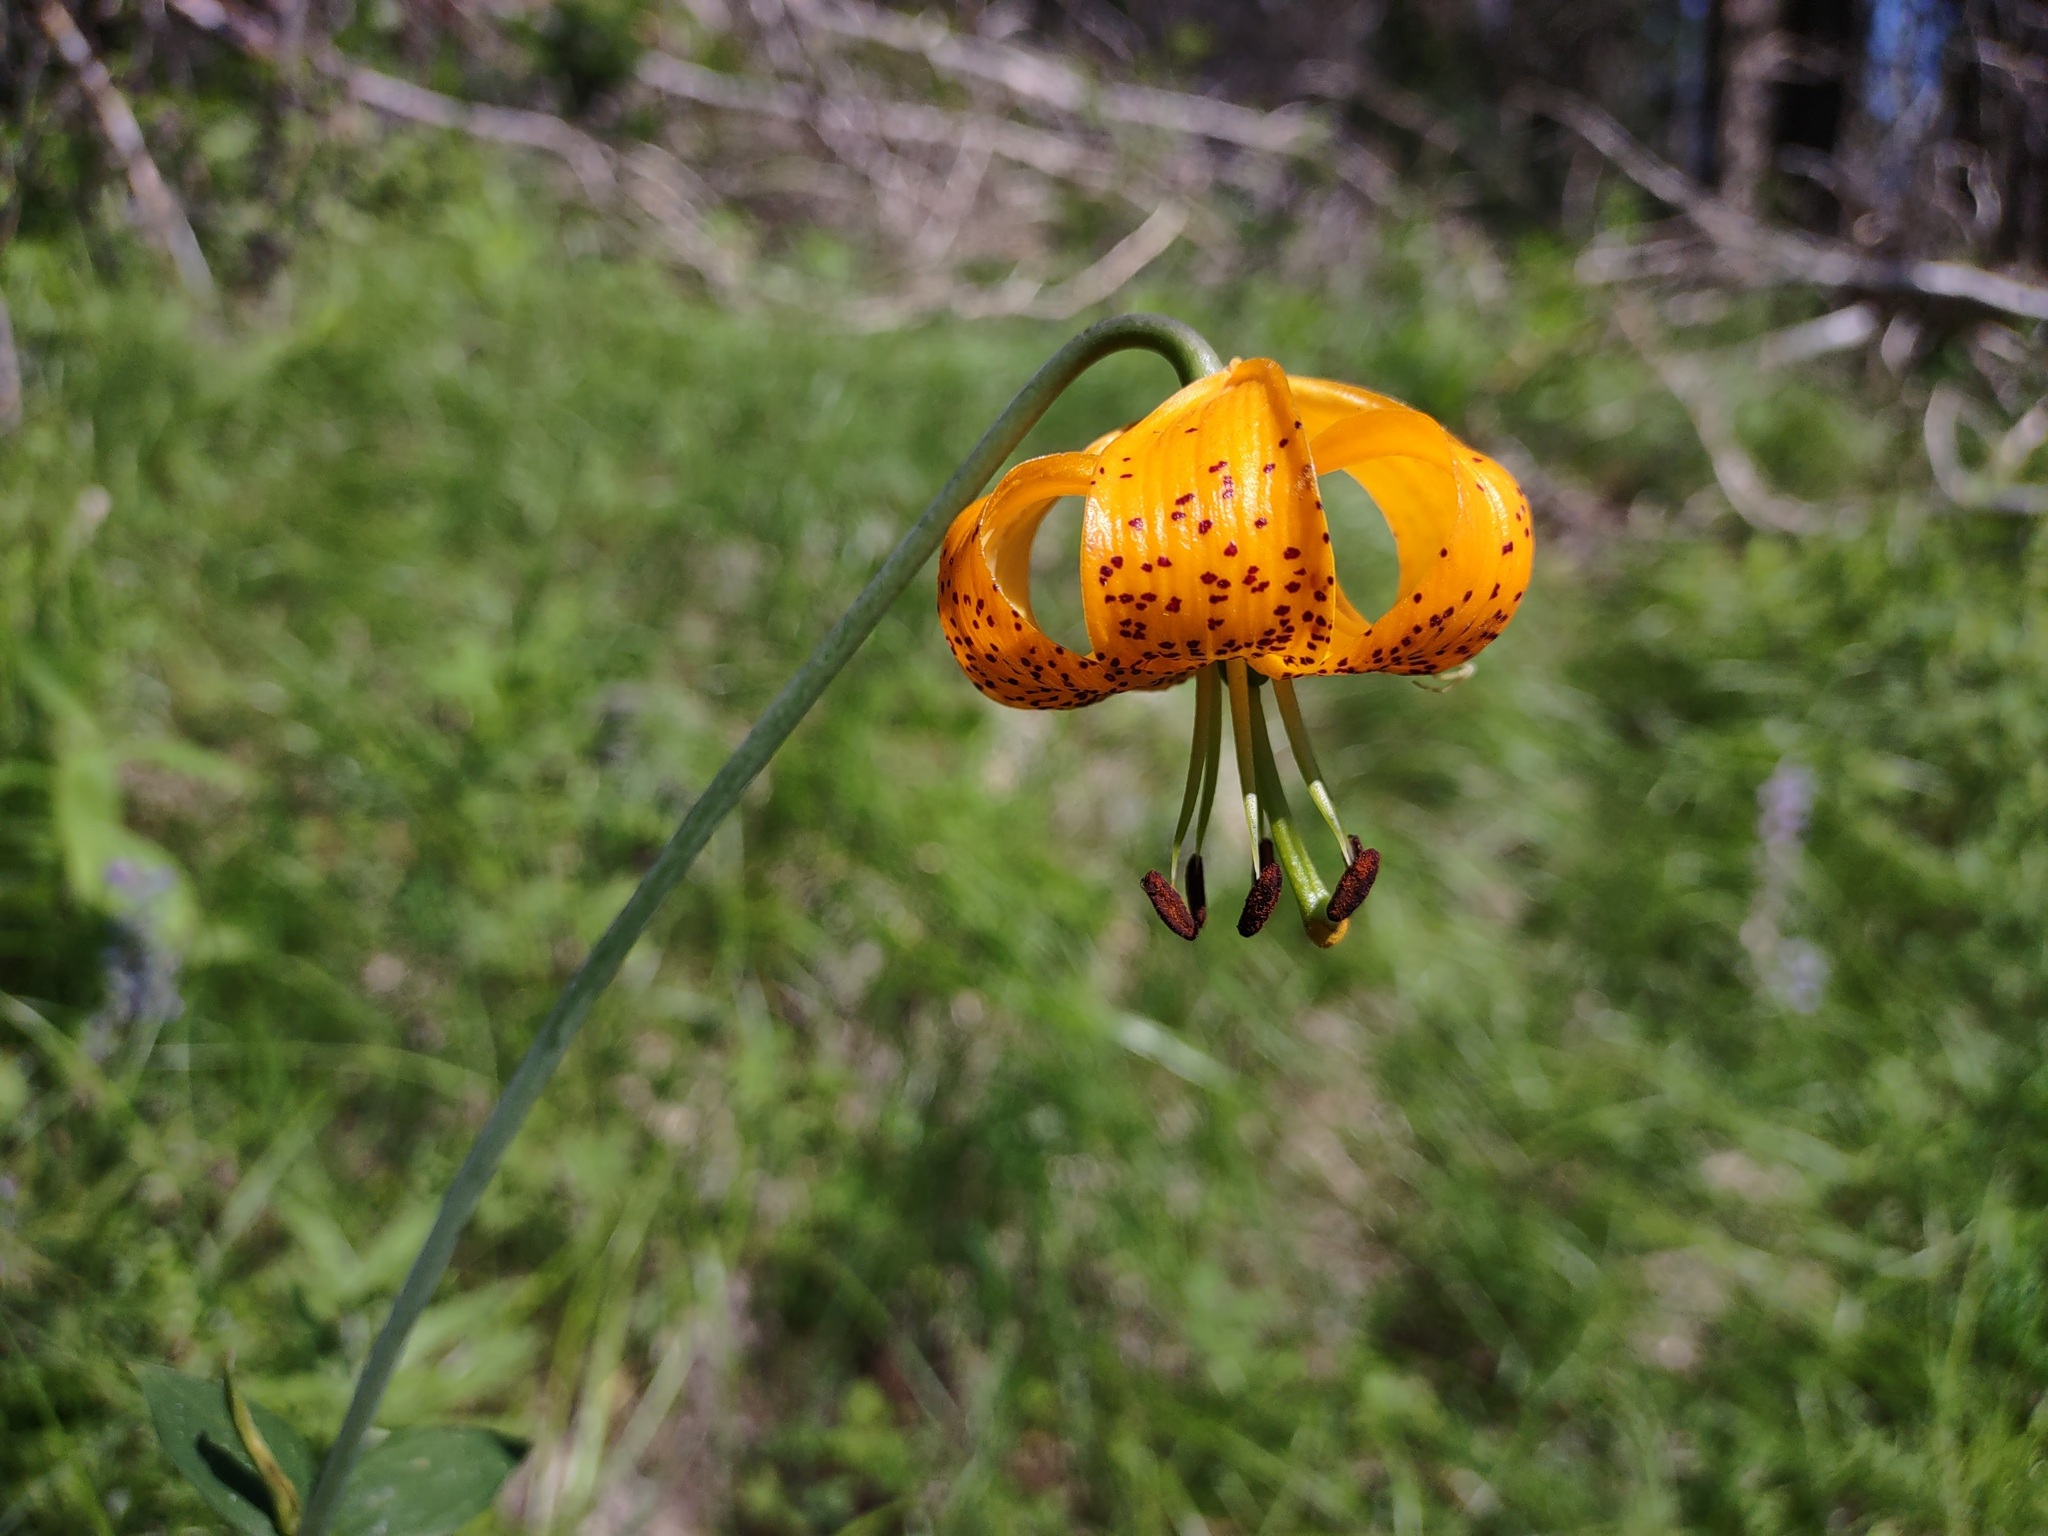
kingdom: Plantae
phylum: Tracheophyta
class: Liliopsida
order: Liliales
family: Liliaceae
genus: Lilium
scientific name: Lilium columbianum
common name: Columbia lily
